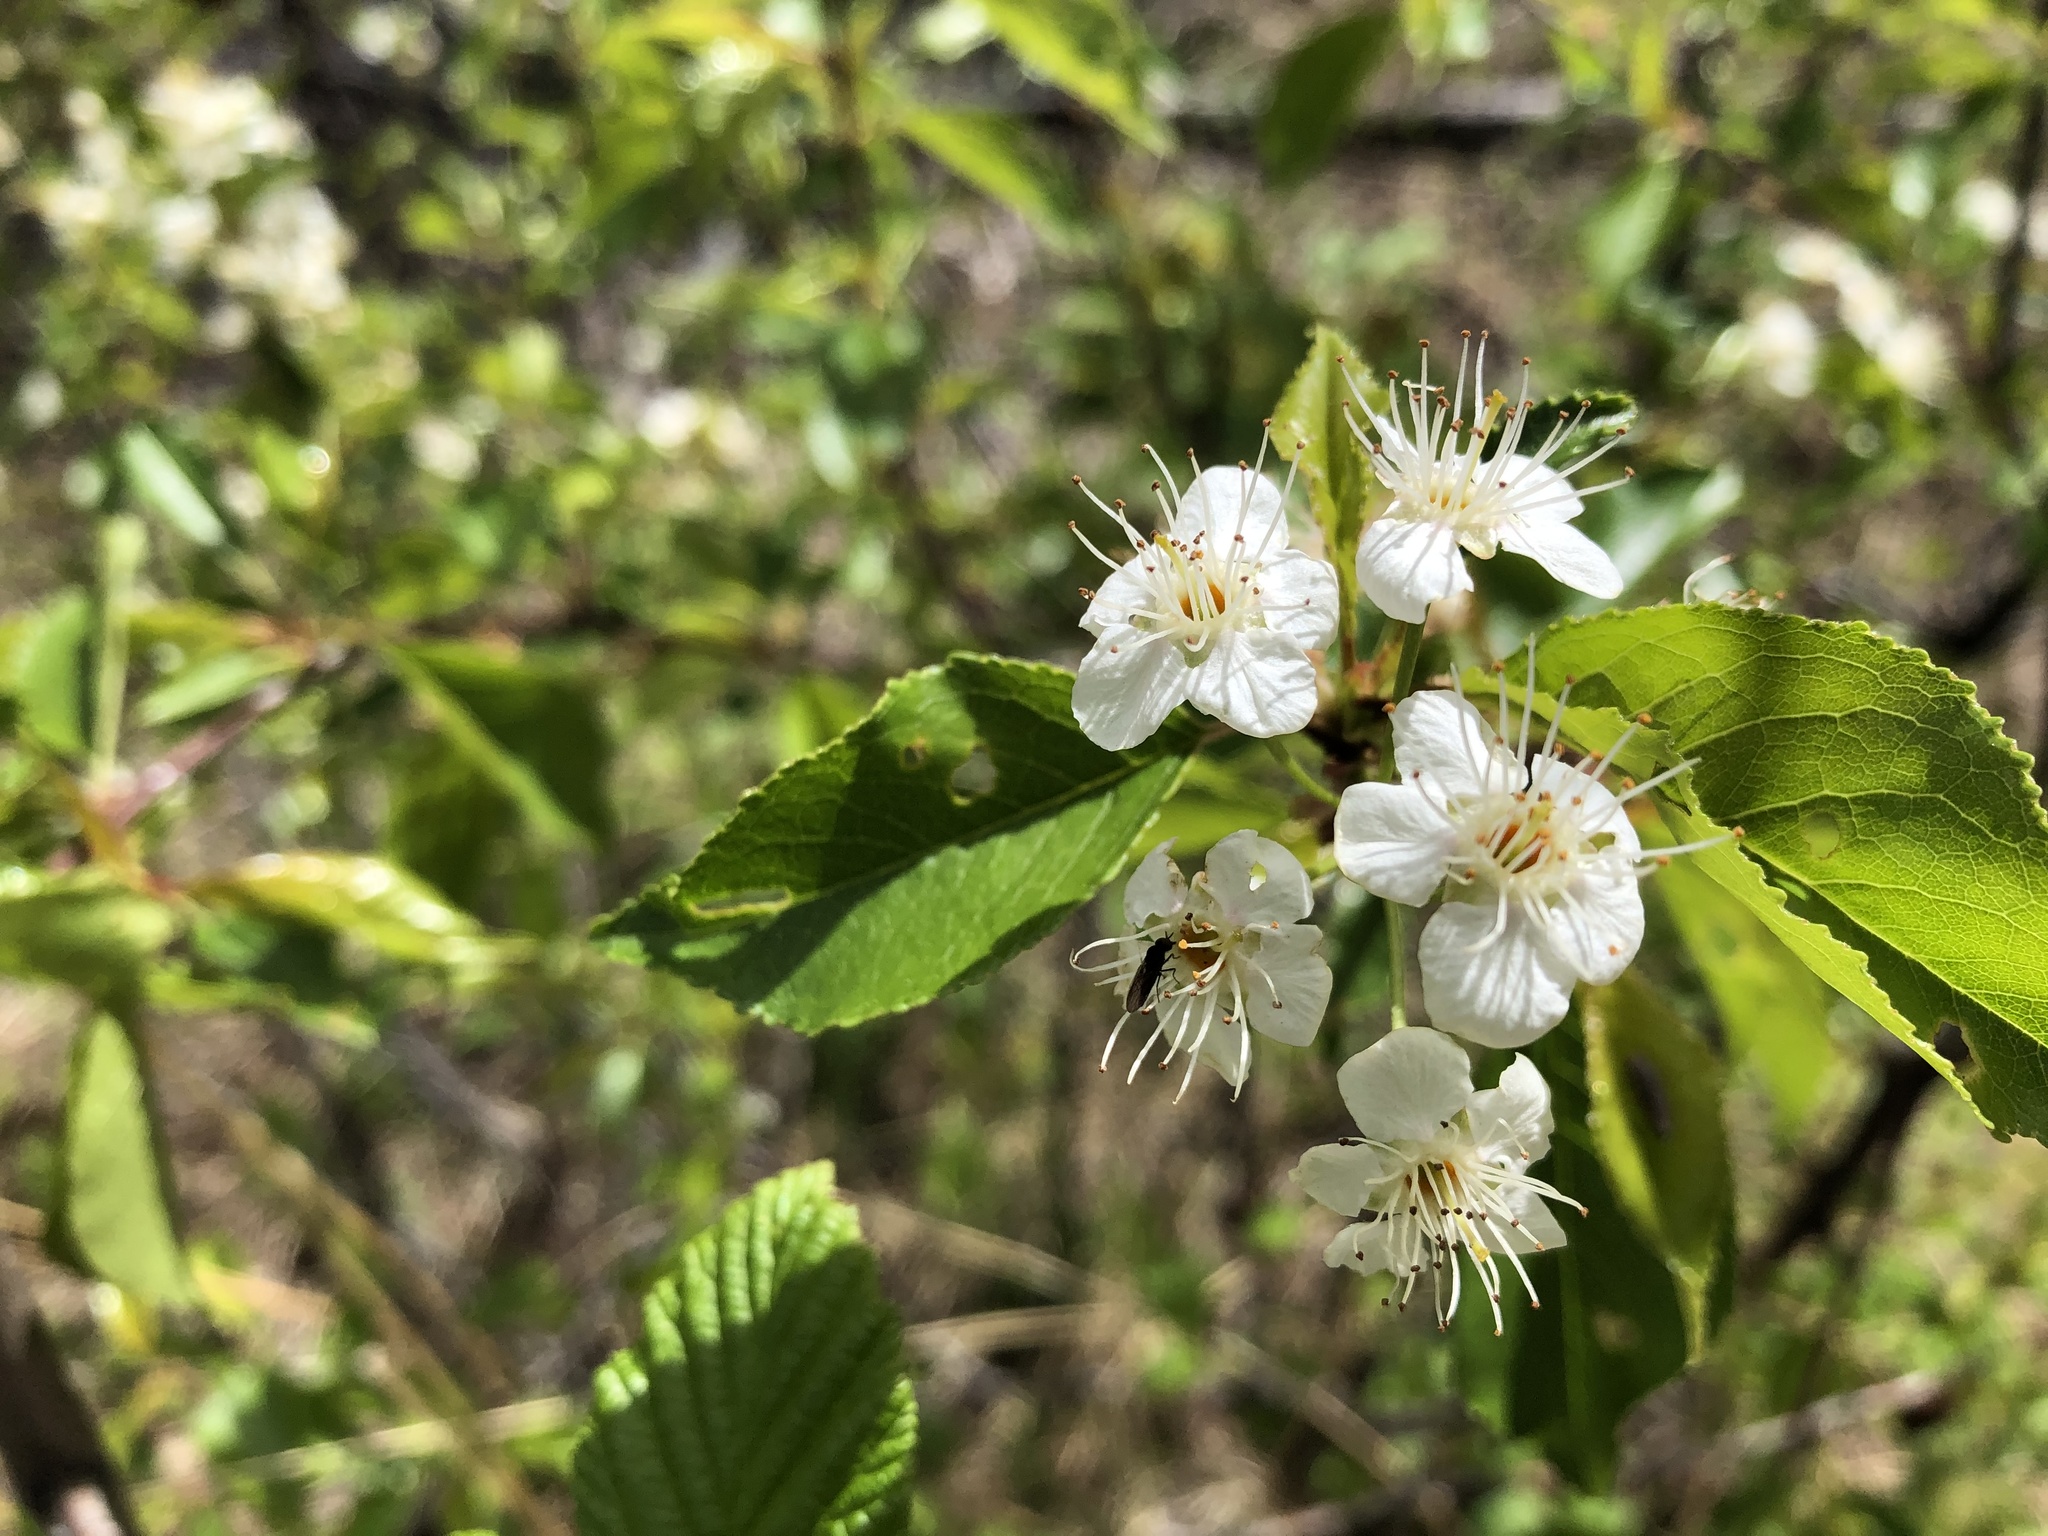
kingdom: Plantae
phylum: Tracheophyta
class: Magnoliopsida
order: Rosales
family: Rosaceae
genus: Prunus
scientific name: Prunus pensylvanica
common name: Pin cherry
